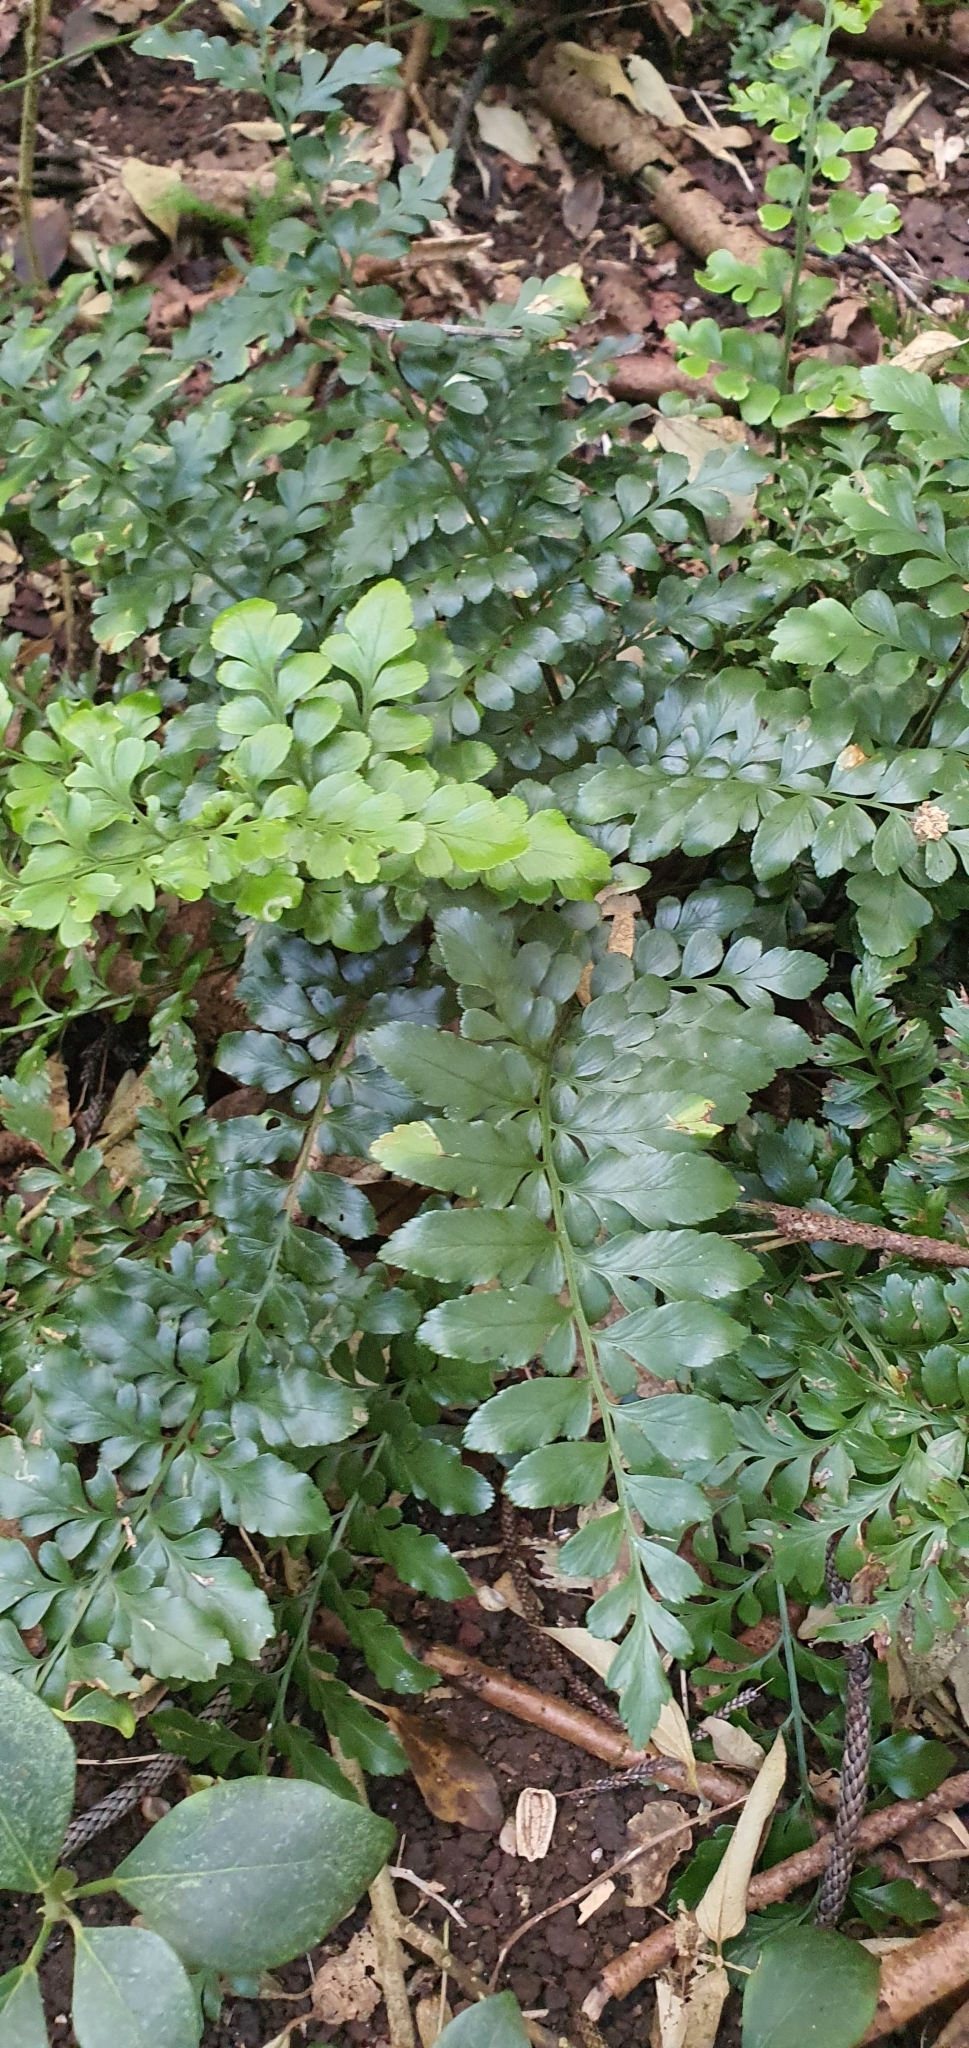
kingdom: Plantae
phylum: Tracheophyta
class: Polypodiopsida
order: Polypodiales
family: Aspleniaceae
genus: Asplenium
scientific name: Asplenium difforme
